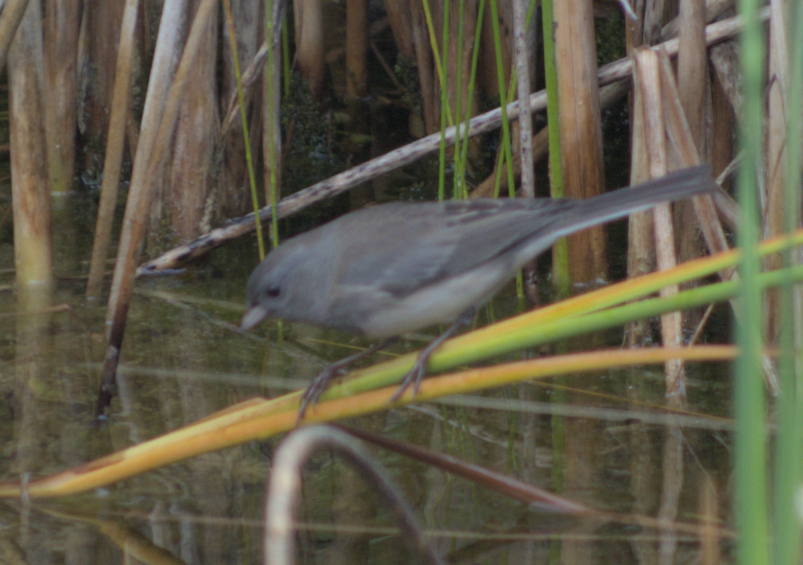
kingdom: Animalia
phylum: Chordata
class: Aves
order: Passeriformes
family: Passerellidae
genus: Junco
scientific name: Junco hyemalis
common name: Dark-eyed junco
